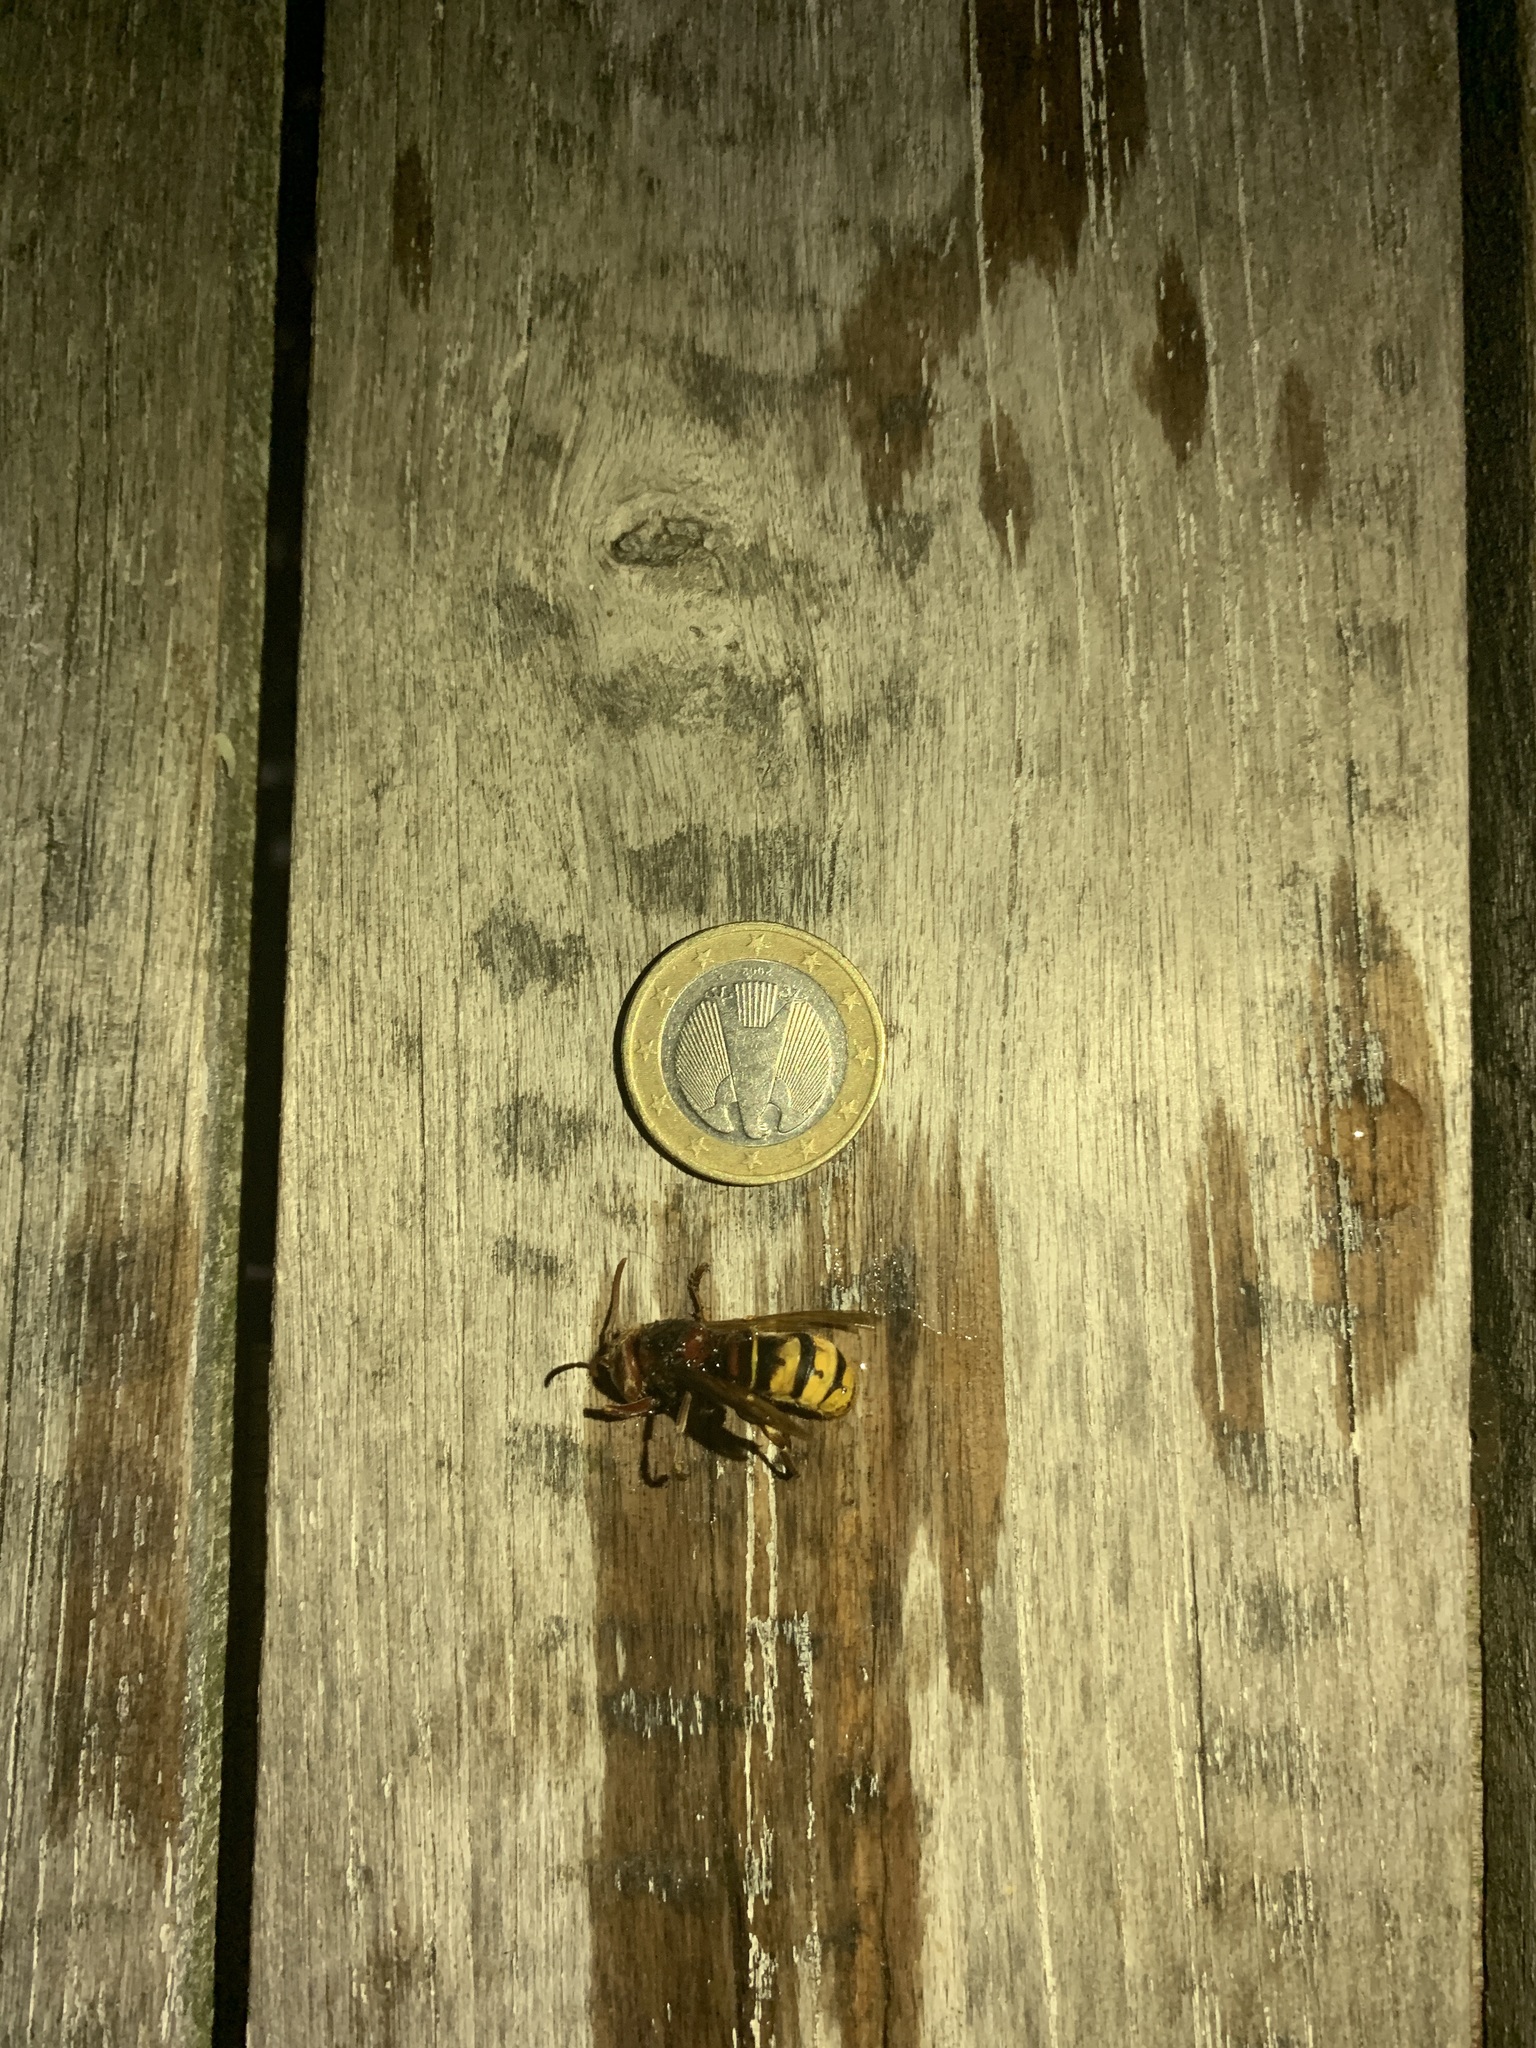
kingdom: Animalia
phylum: Arthropoda
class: Insecta
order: Hymenoptera
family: Vespidae
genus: Vespa
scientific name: Vespa crabro
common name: Hornet
